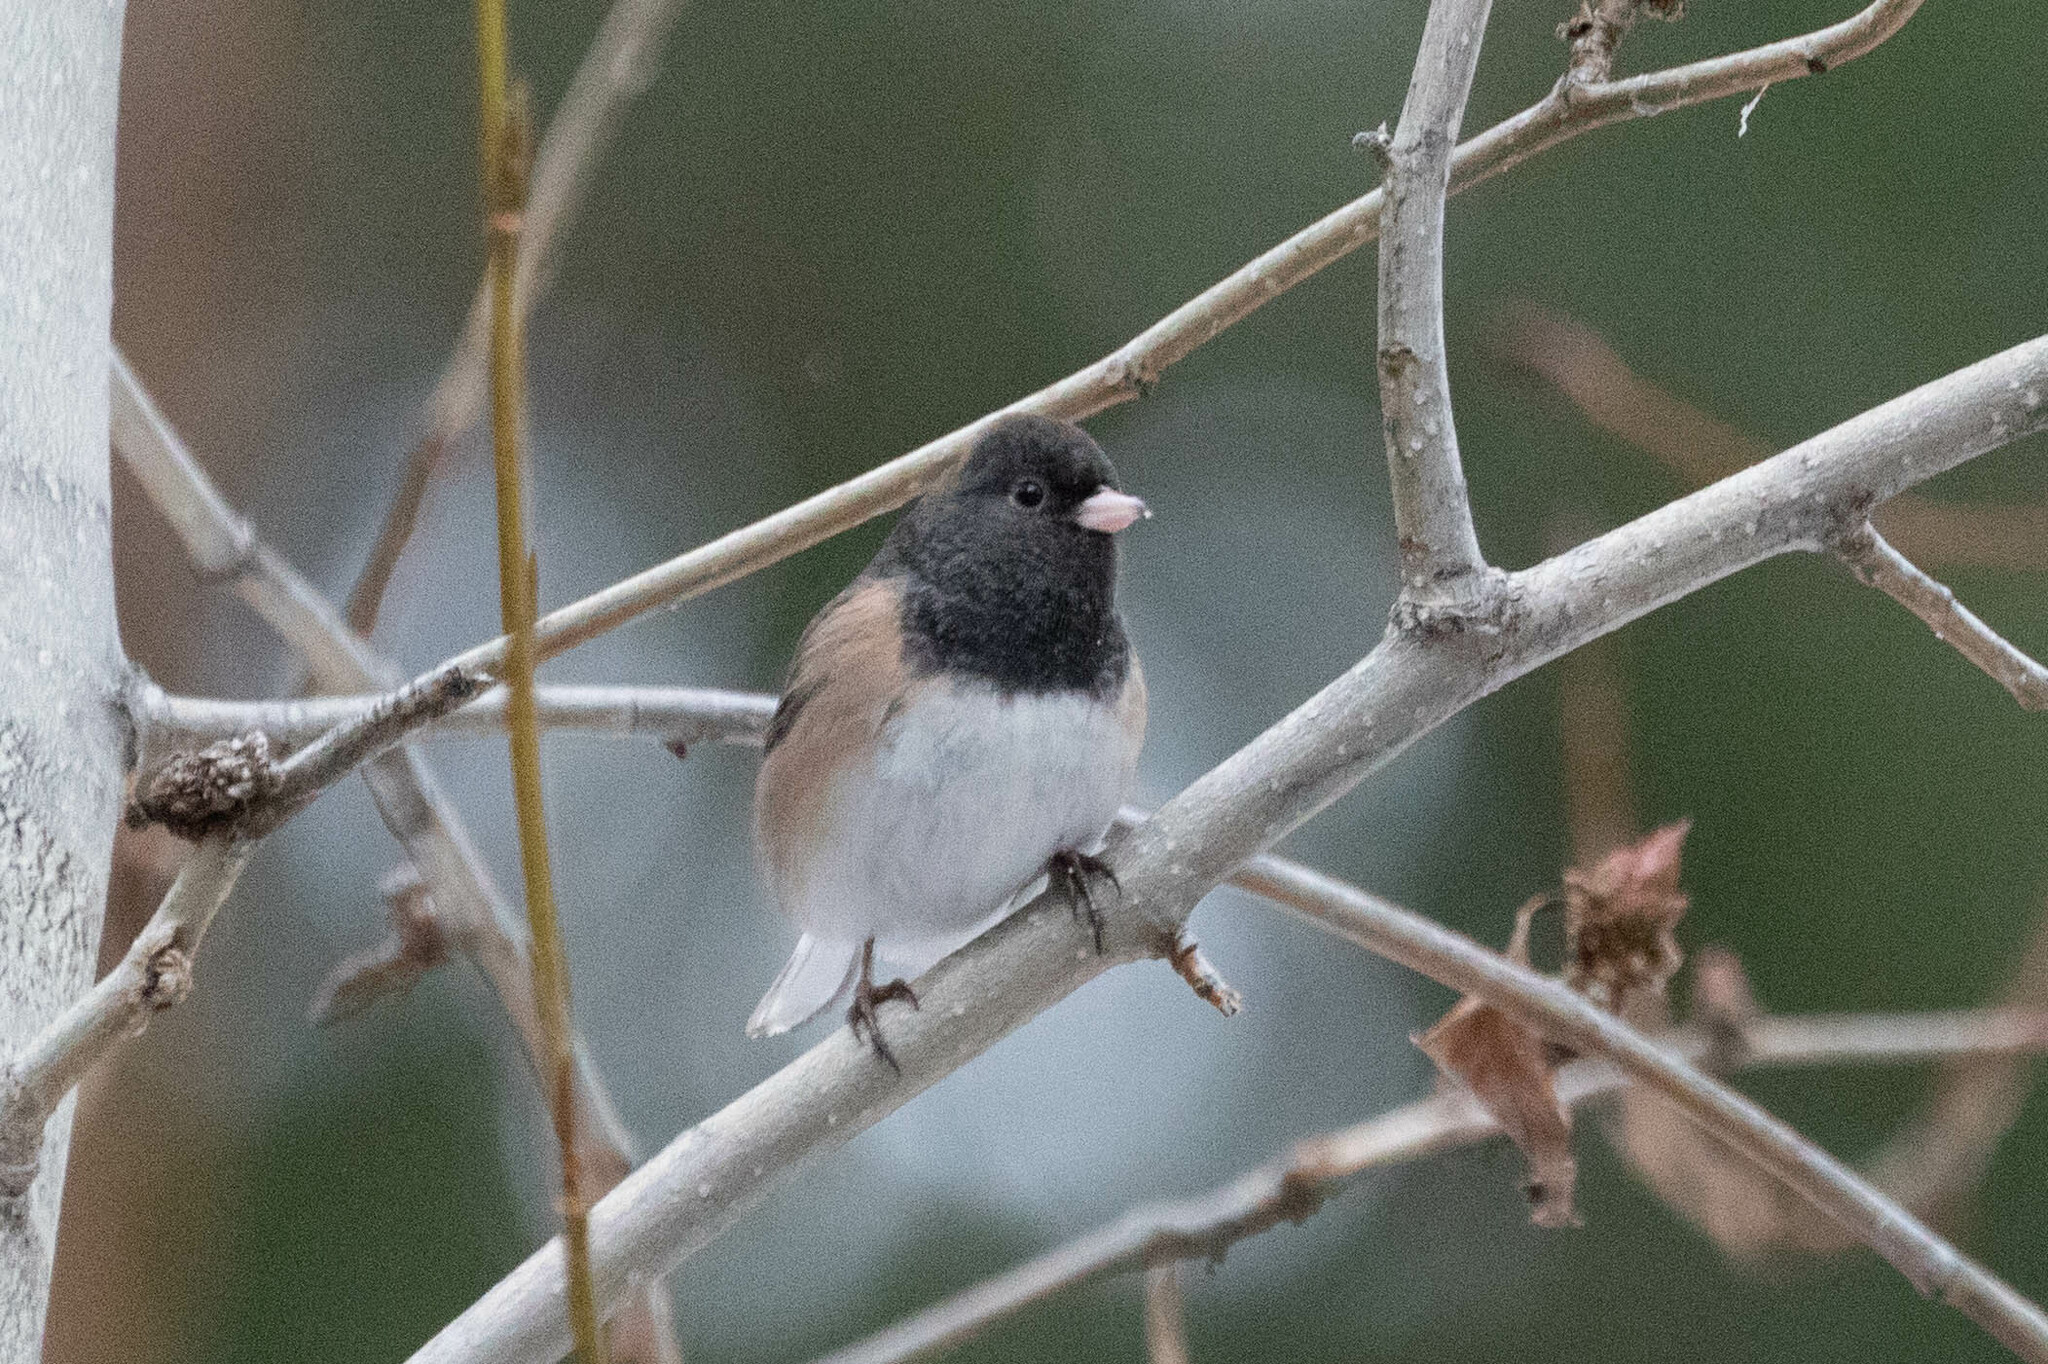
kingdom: Animalia
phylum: Chordata
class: Aves
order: Passeriformes
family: Passerellidae
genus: Junco
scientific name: Junco hyemalis
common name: Dark-eyed junco
